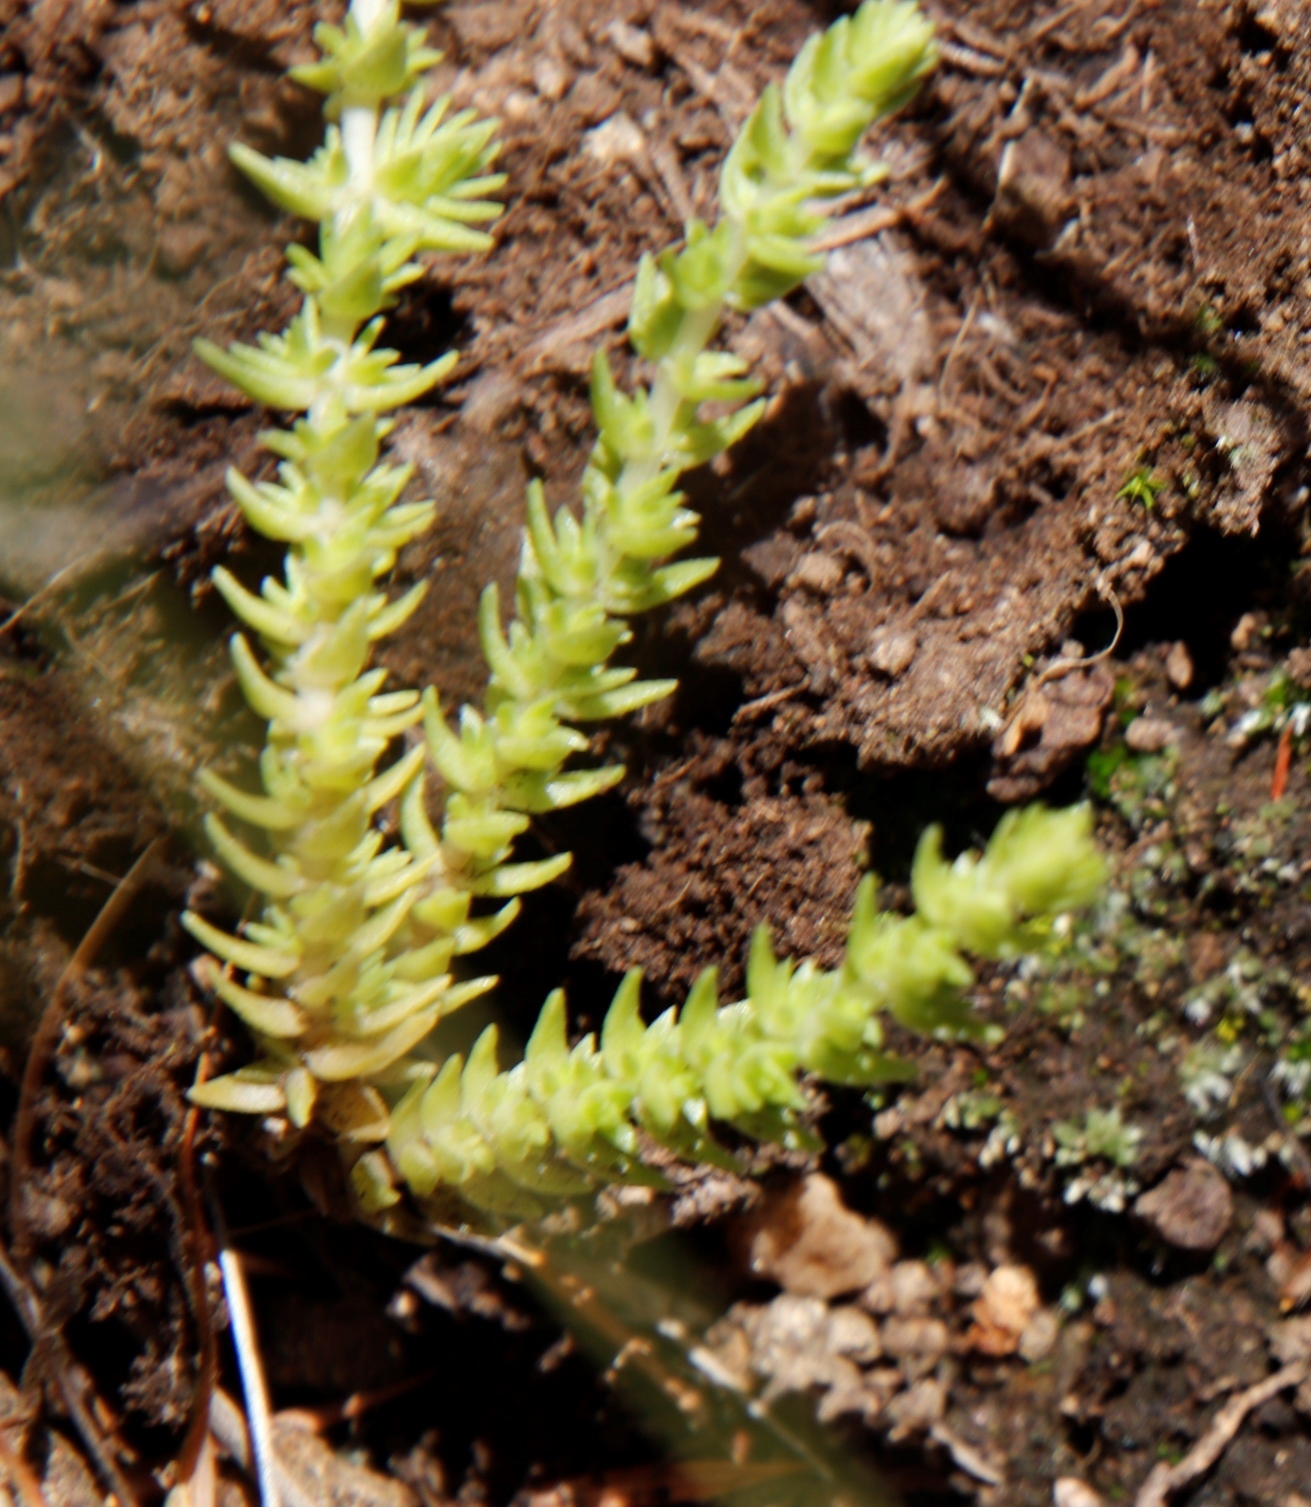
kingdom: Plantae
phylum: Tracheophyta
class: Magnoliopsida
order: Saxifragales
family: Crassulaceae
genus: Crassula
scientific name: Crassula lanceolata
